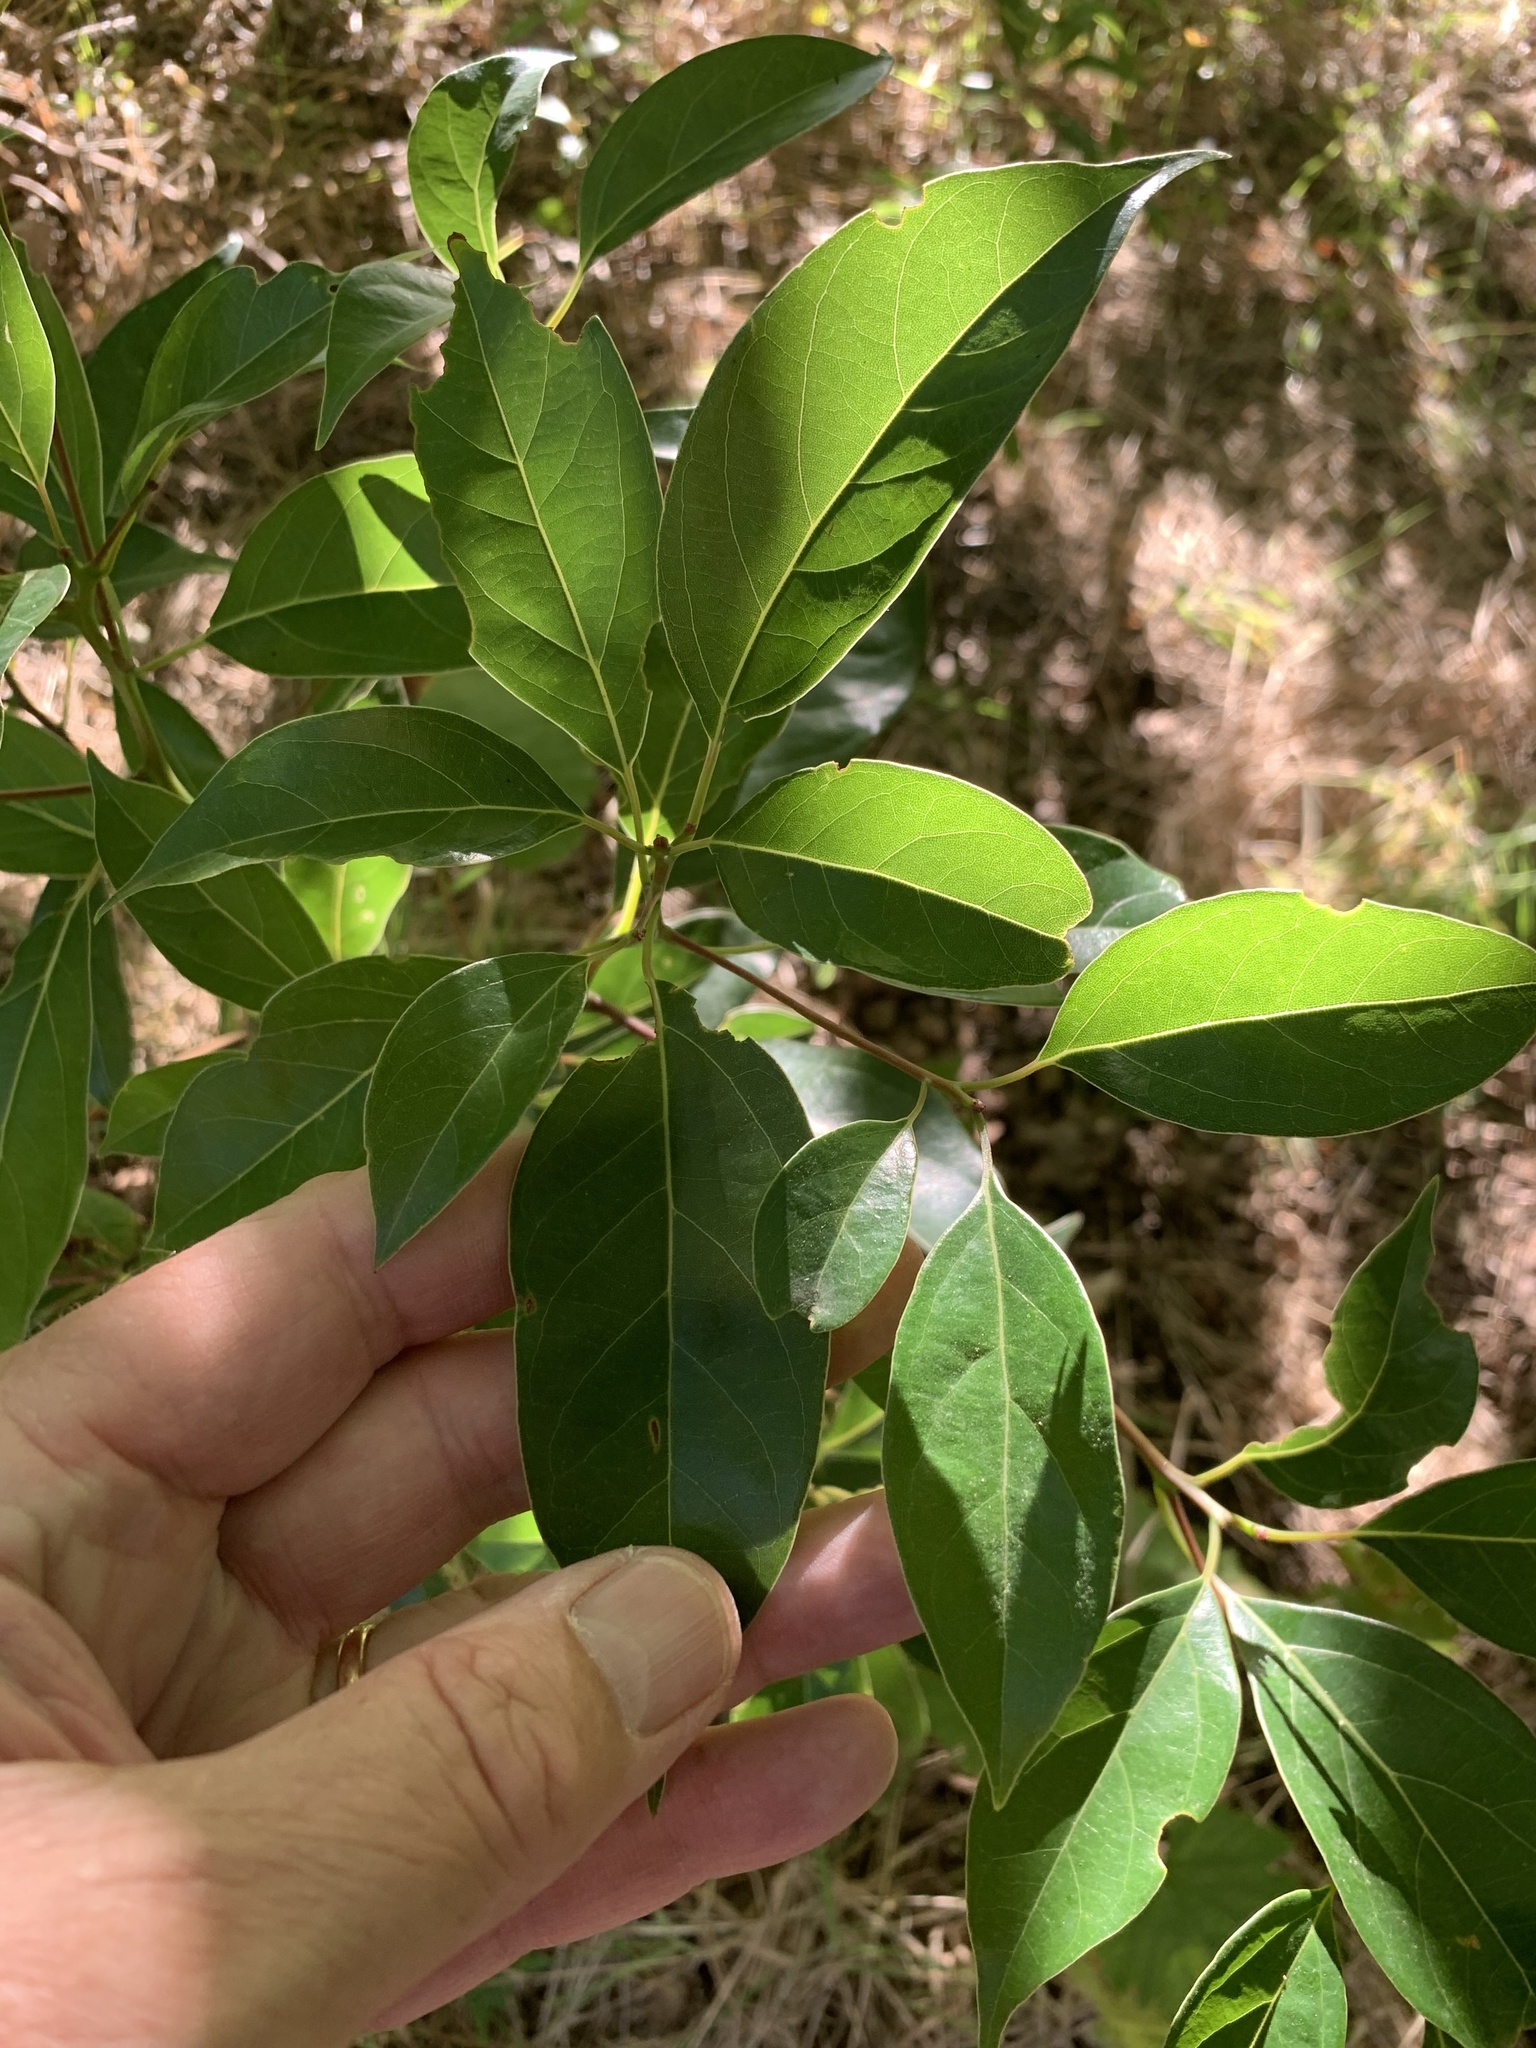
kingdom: Plantae
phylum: Tracheophyta
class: Magnoliopsida
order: Laurales
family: Lauraceae
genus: Cinnamomum
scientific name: Cinnamomum camphora
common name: Camphortree
